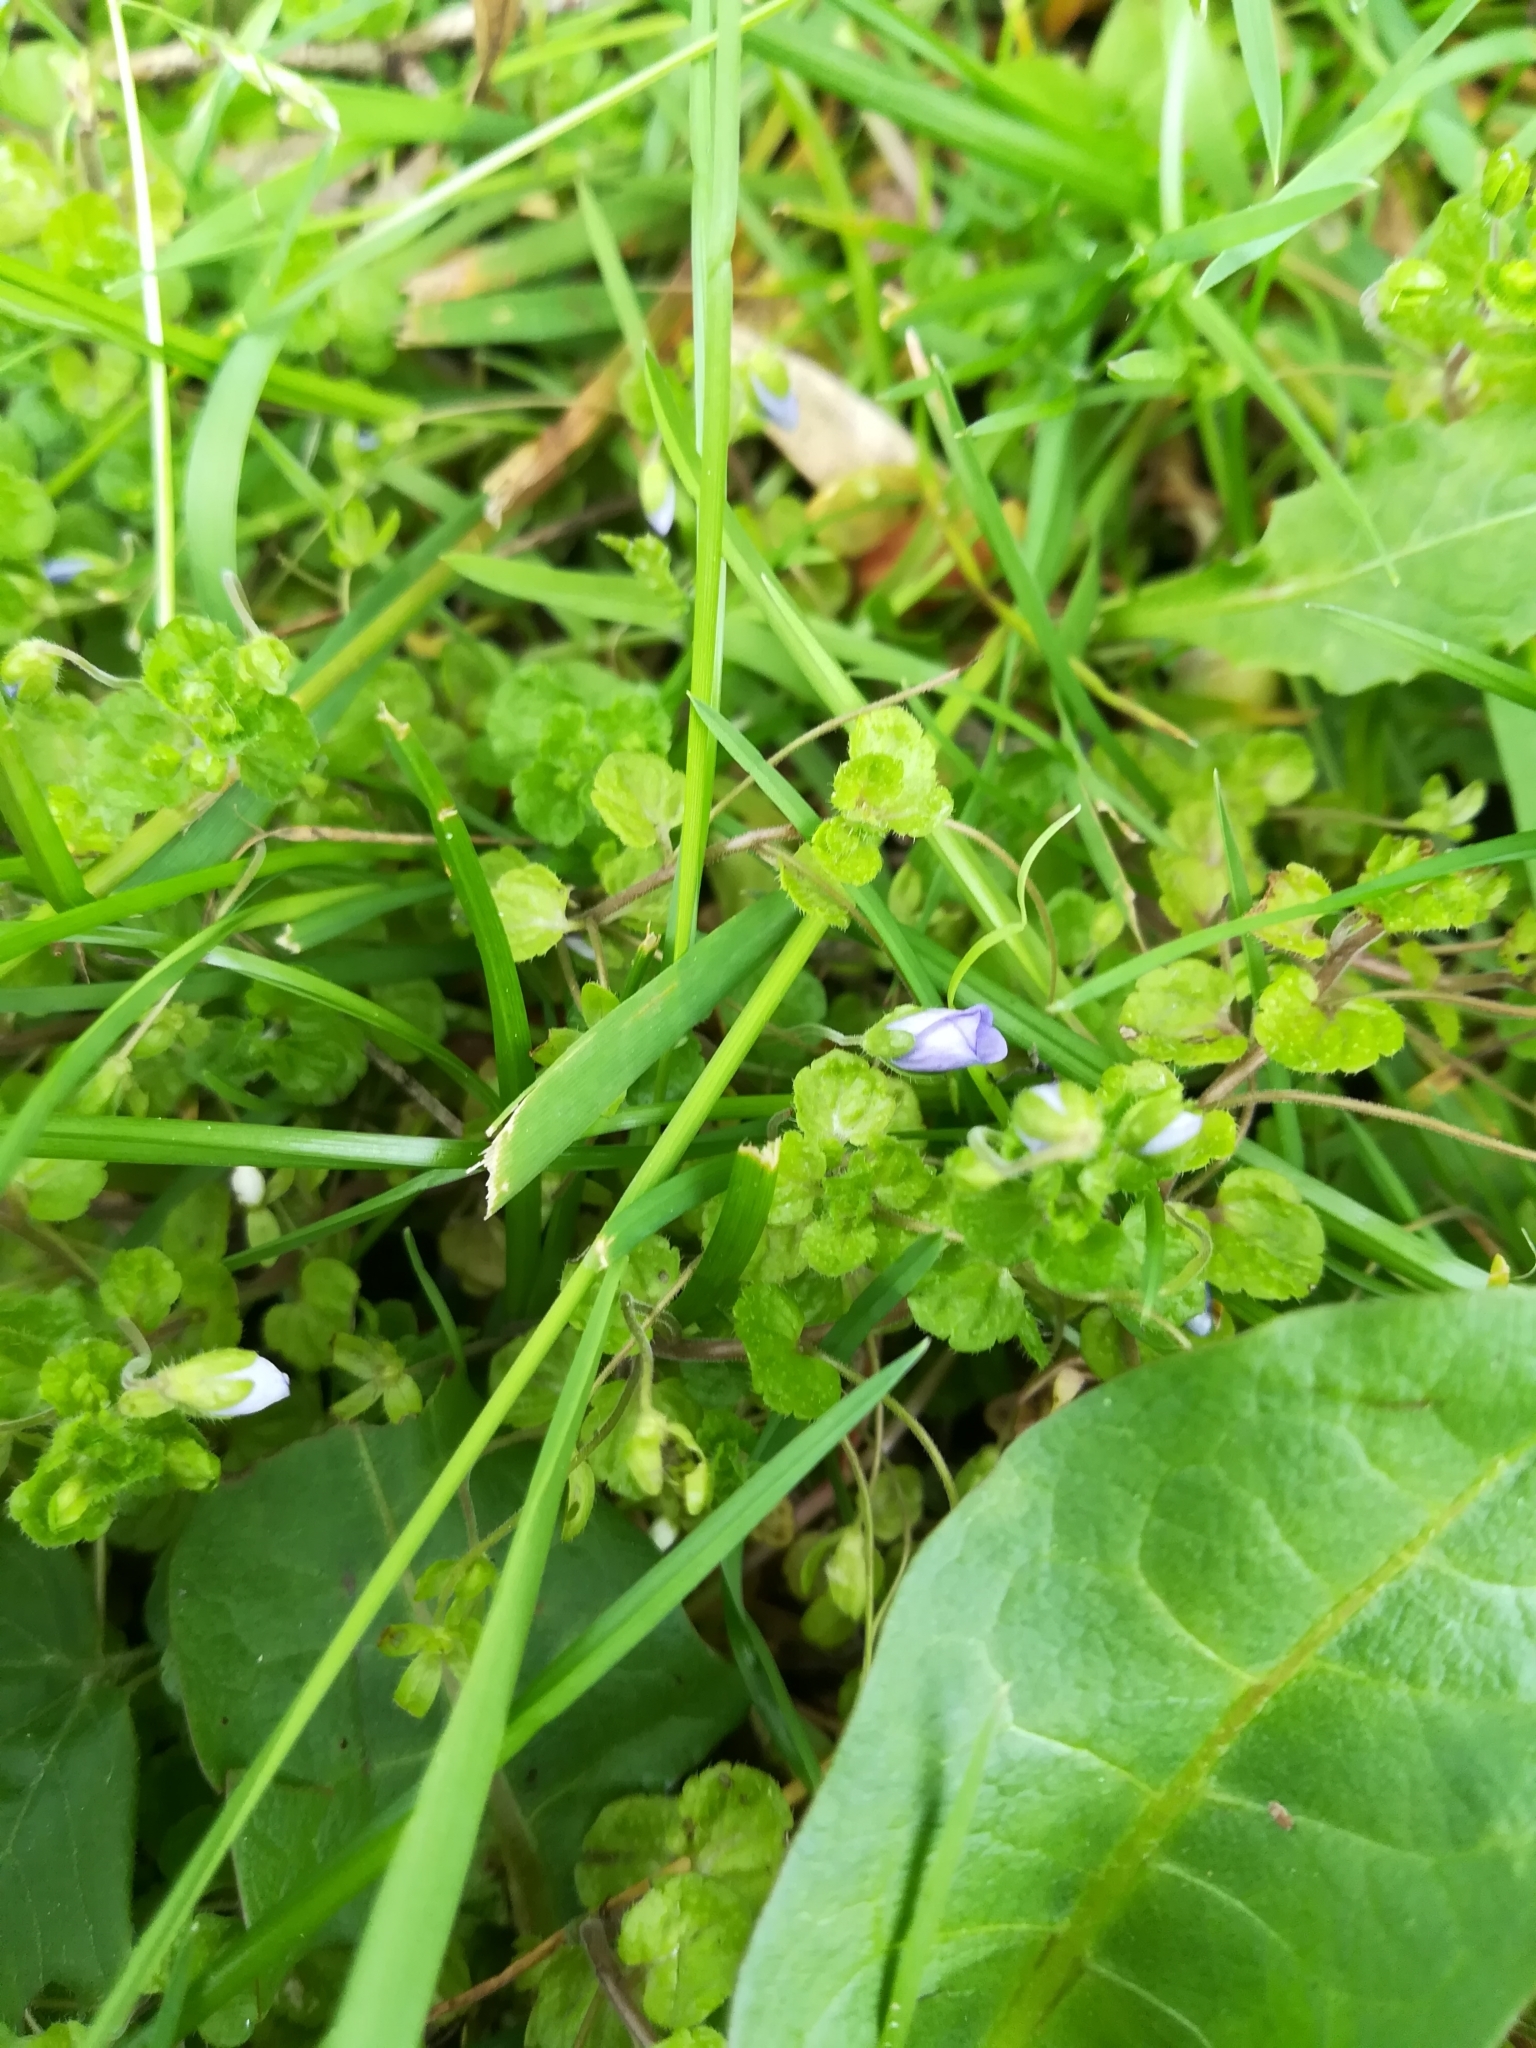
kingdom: Plantae
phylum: Tracheophyta
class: Magnoliopsida
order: Lamiales
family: Plantaginaceae
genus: Veronica
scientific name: Veronica filiformis
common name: Slender speedwell
